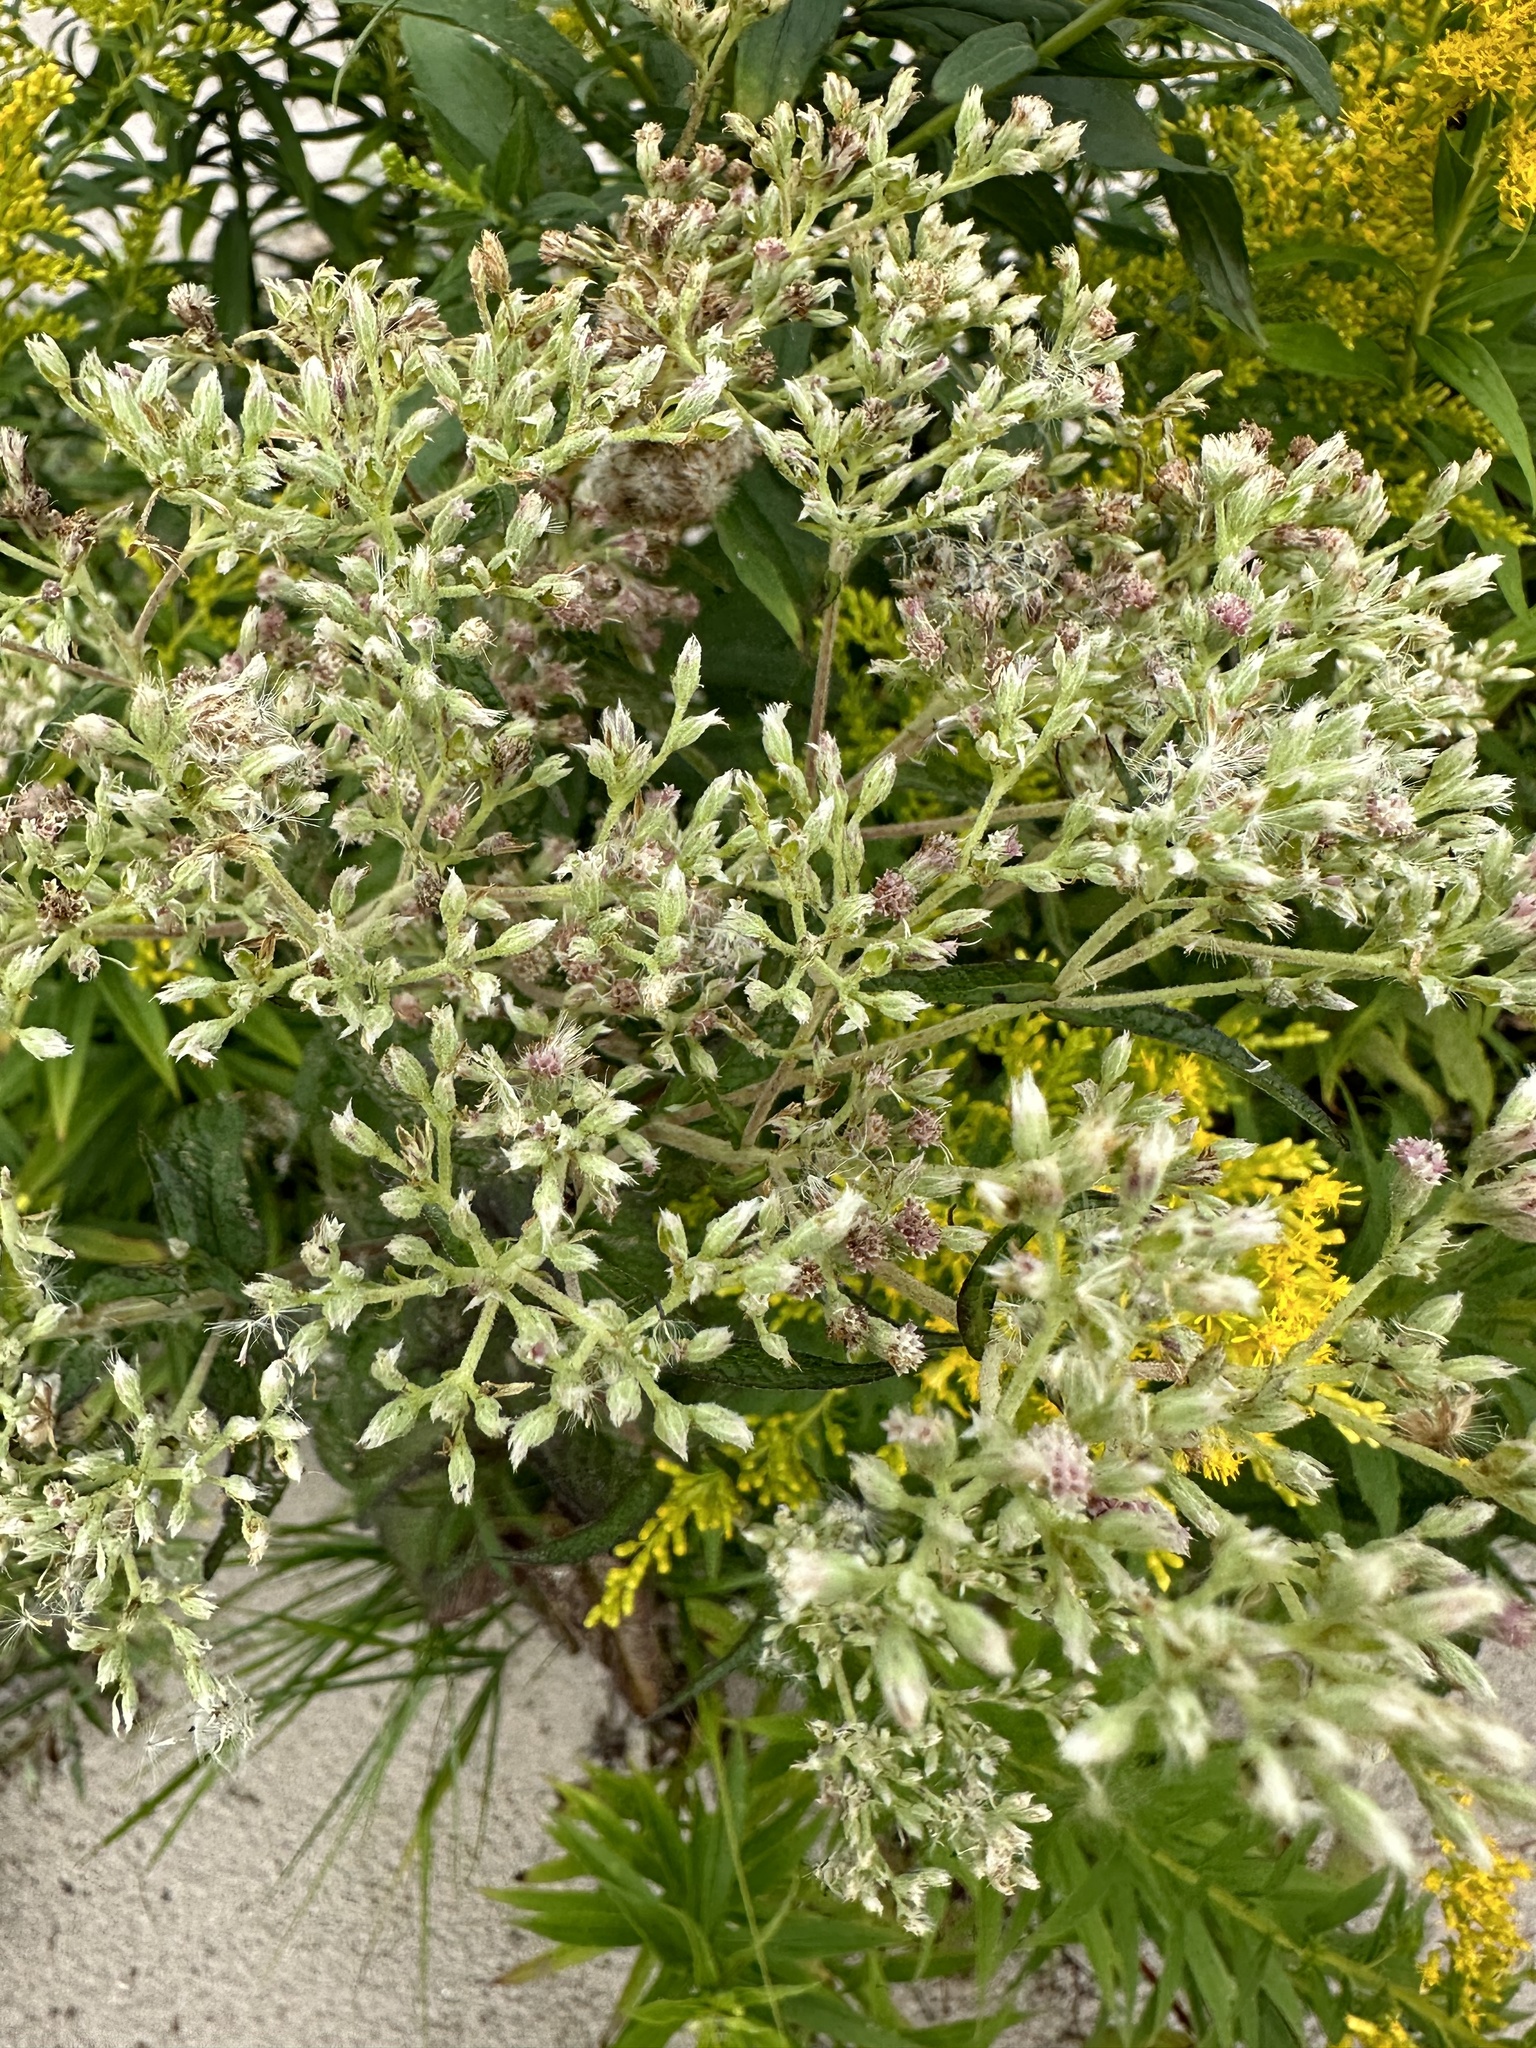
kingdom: Plantae
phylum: Tracheophyta
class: Magnoliopsida
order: Asterales
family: Asteraceae
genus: Eupatorium
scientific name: Eupatorium perfoliatum
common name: Boneset
